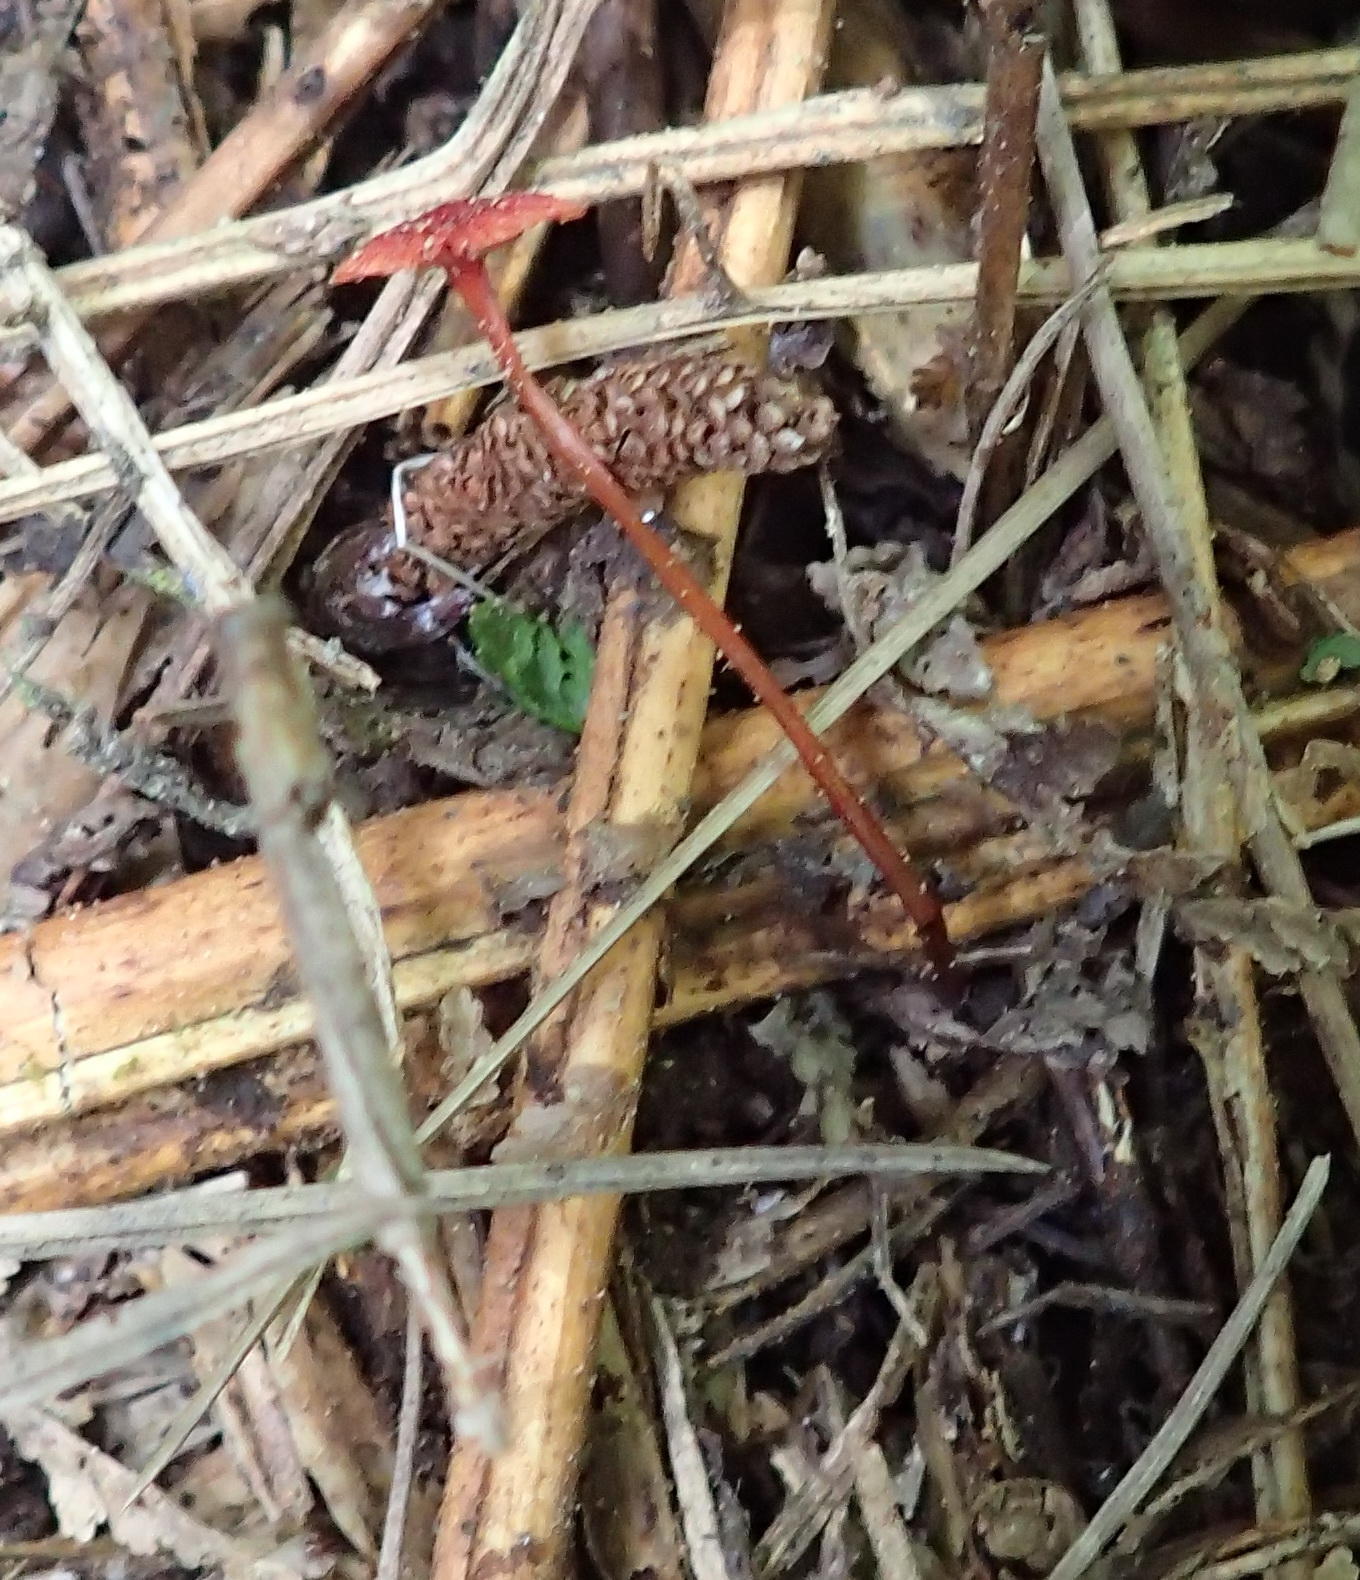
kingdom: Fungi
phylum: Basidiomycota
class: Agaricomycetes
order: Agaricales
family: Mycenaceae
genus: Cruentomycena
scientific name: Cruentomycena viscidocruenta
